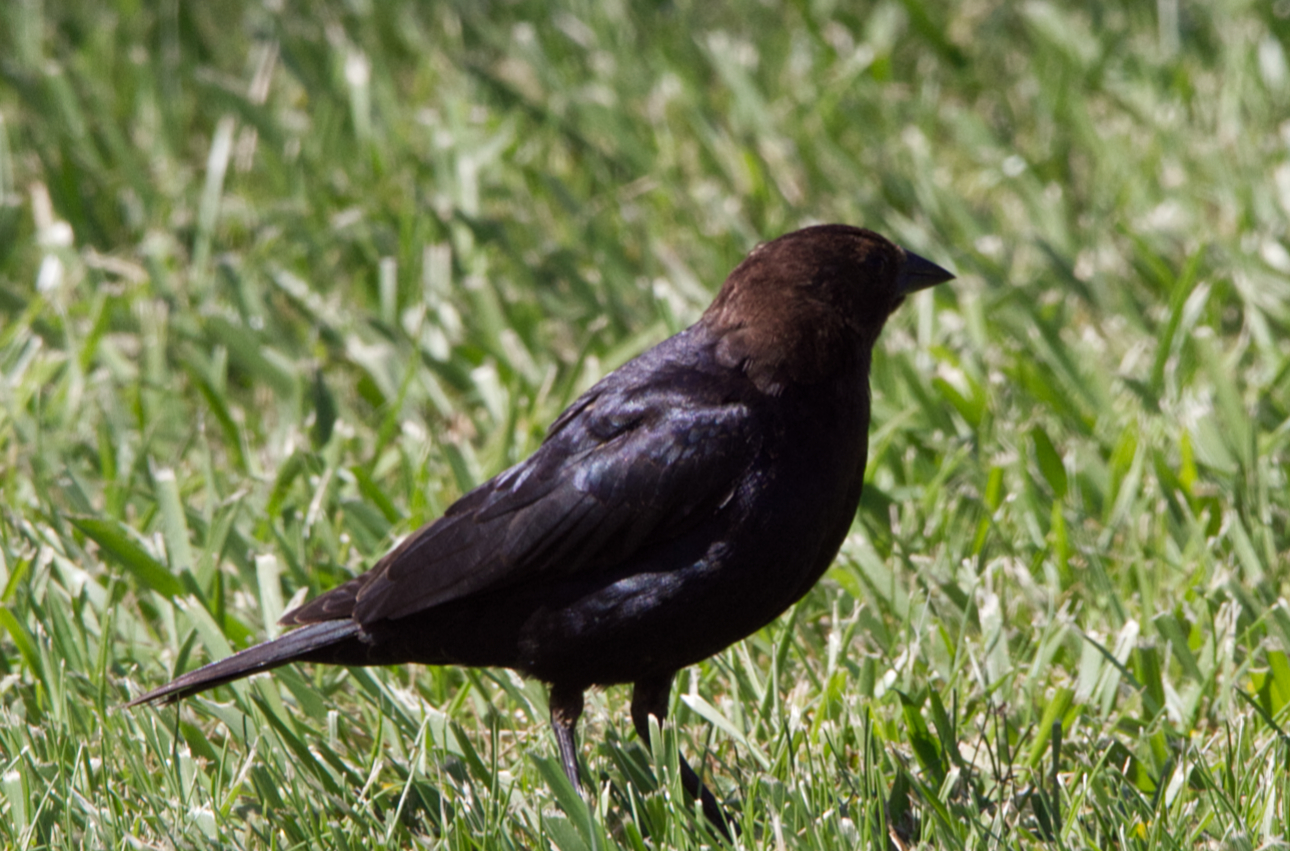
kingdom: Animalia
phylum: Chordata
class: Aves
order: Passeriformes
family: Icteridae
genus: Molothrus
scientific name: Molothrus ater
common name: Brown-headed cowbird
